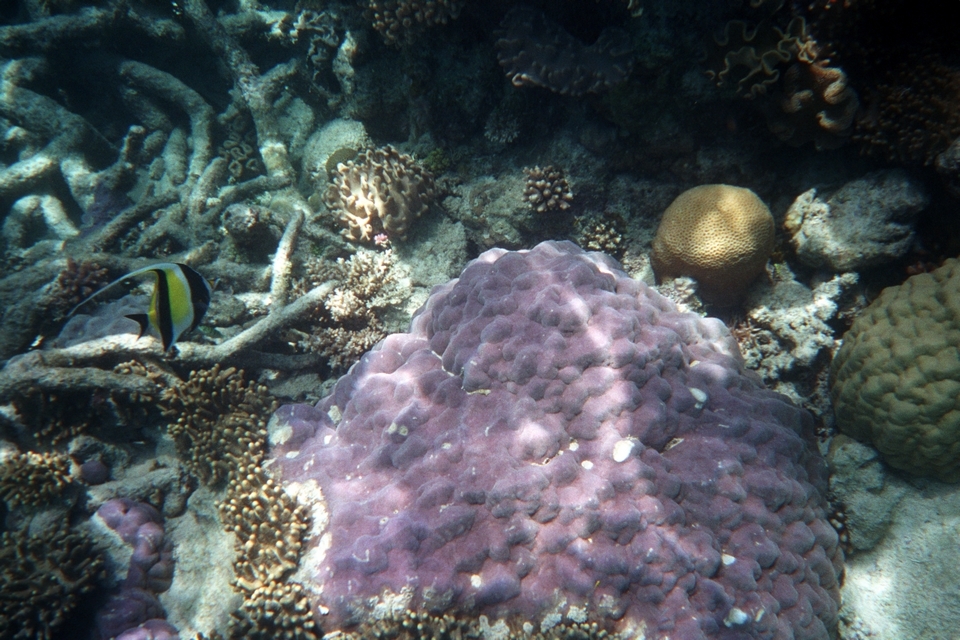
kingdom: Animalia
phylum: Chordata
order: Perciformes
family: Zanclidae
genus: Zanclus
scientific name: Zanclus cornutus
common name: Moorish idol
